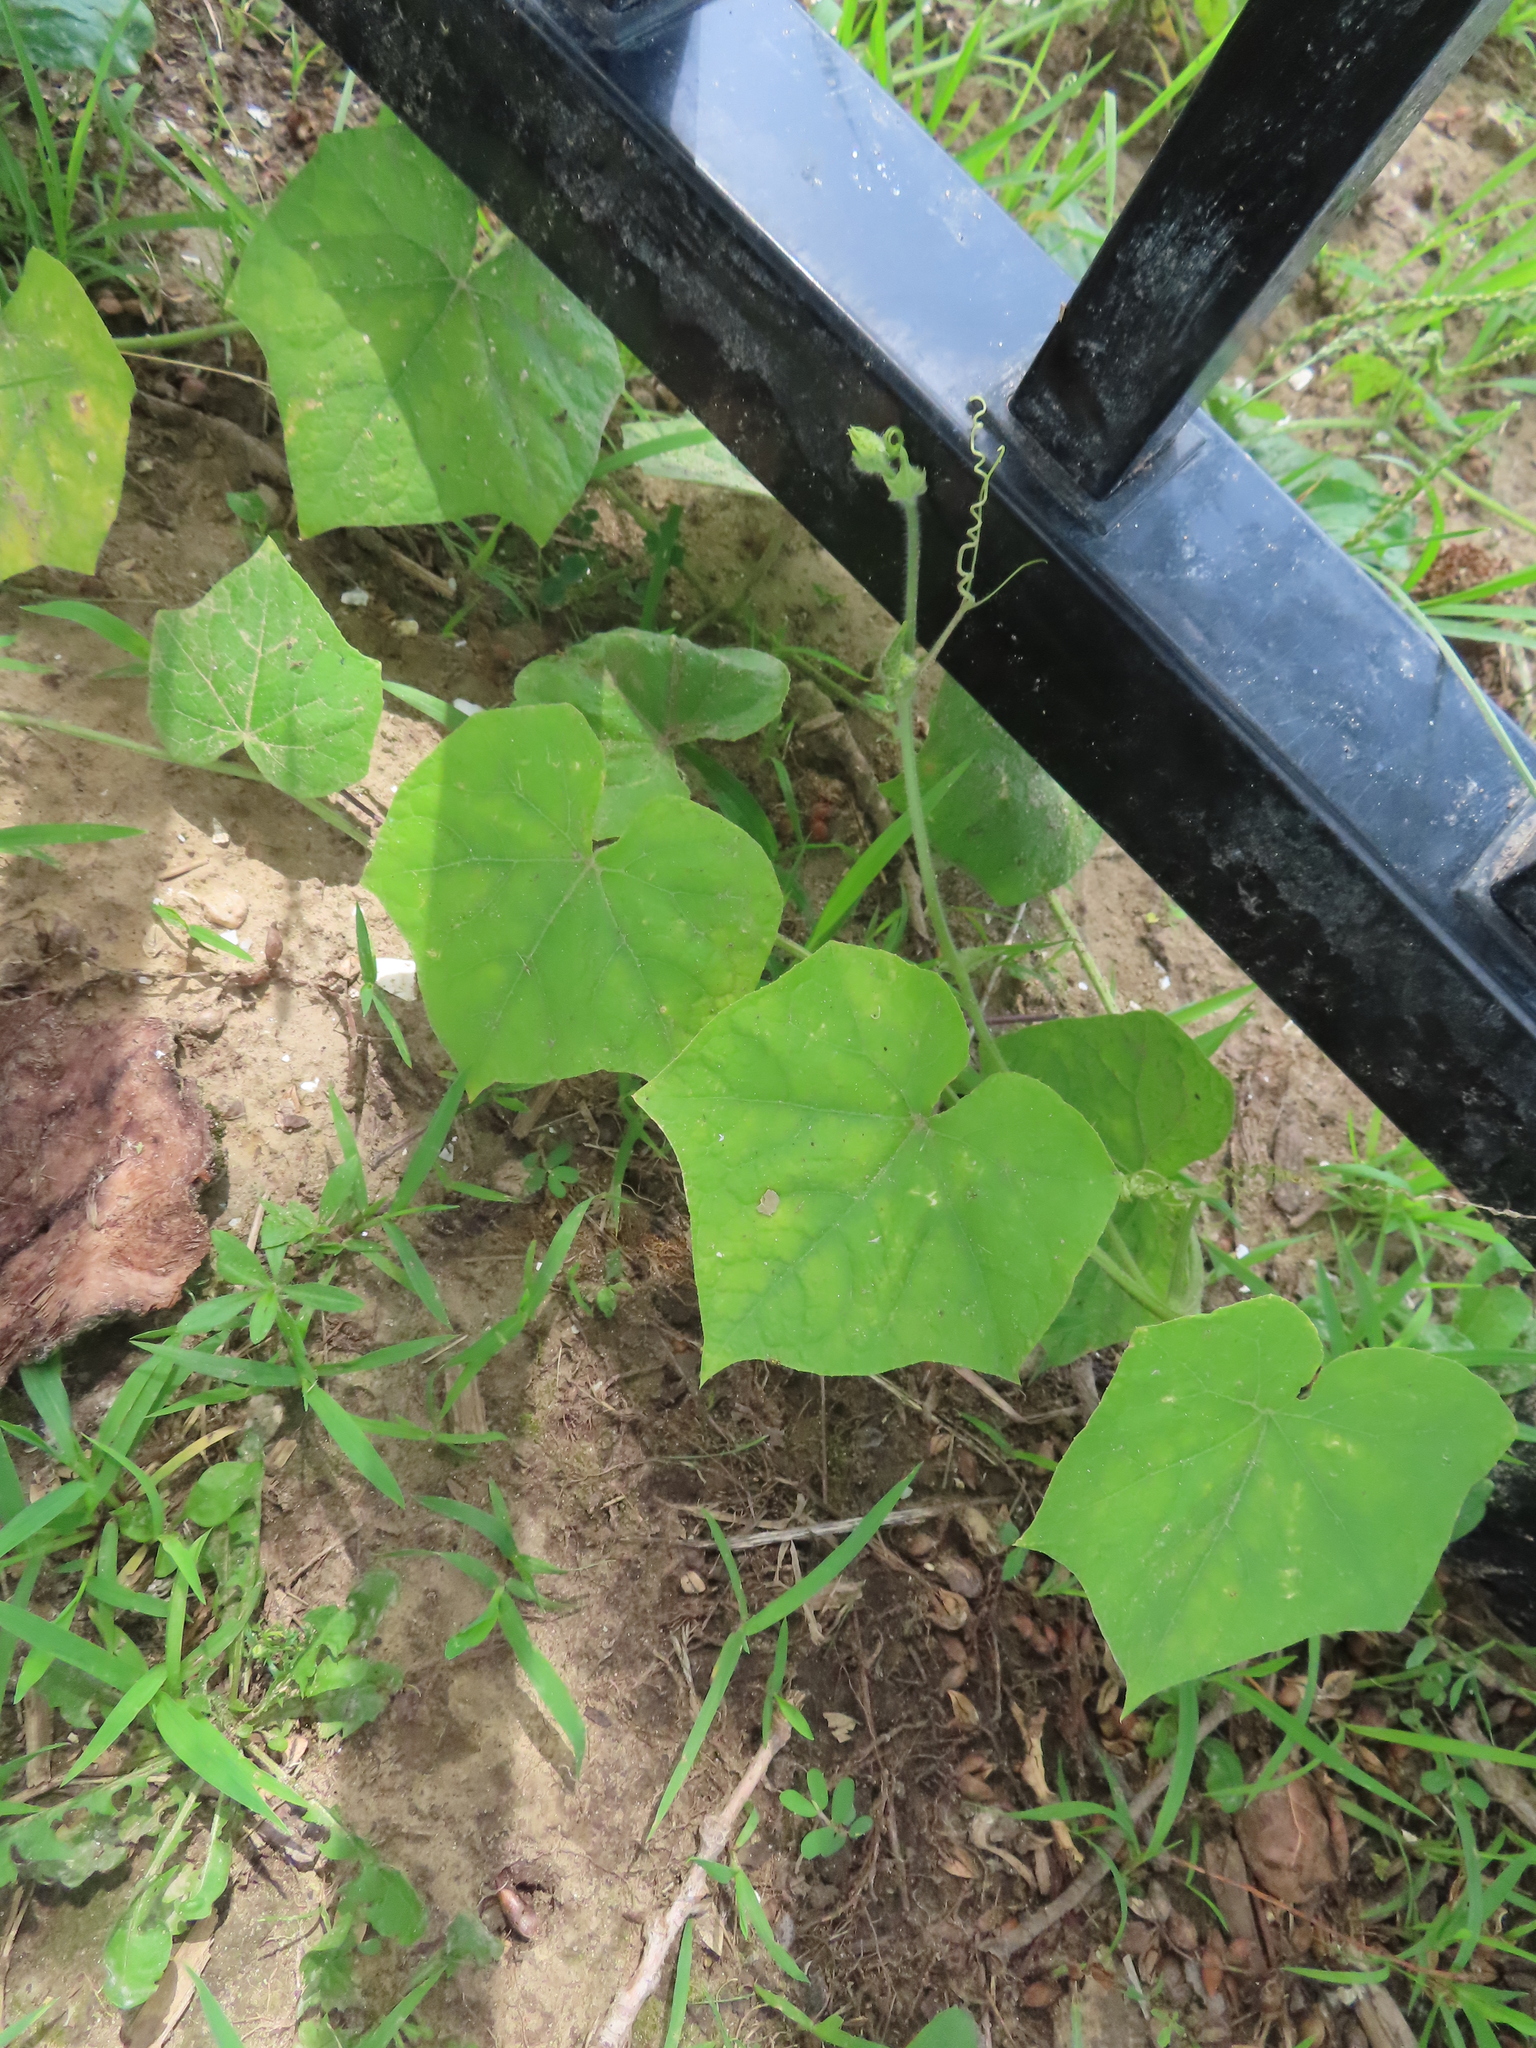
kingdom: Plantae
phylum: Tracheophyta
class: Magnoliopsida
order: Cucurbitales
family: Cucurbitaceae
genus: Sicyos
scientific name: Sicyos angulatus
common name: Angled burr cucumber
